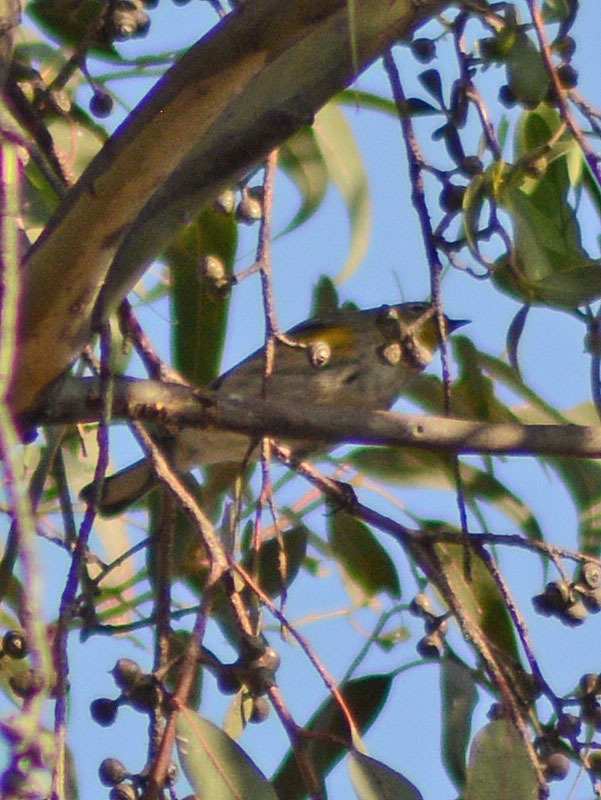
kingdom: Animalia
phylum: Chordata
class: Aves
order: Passeriformes
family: Parulidae
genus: Setophaga
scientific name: Setophaga coronata
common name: Myrtle warbler
